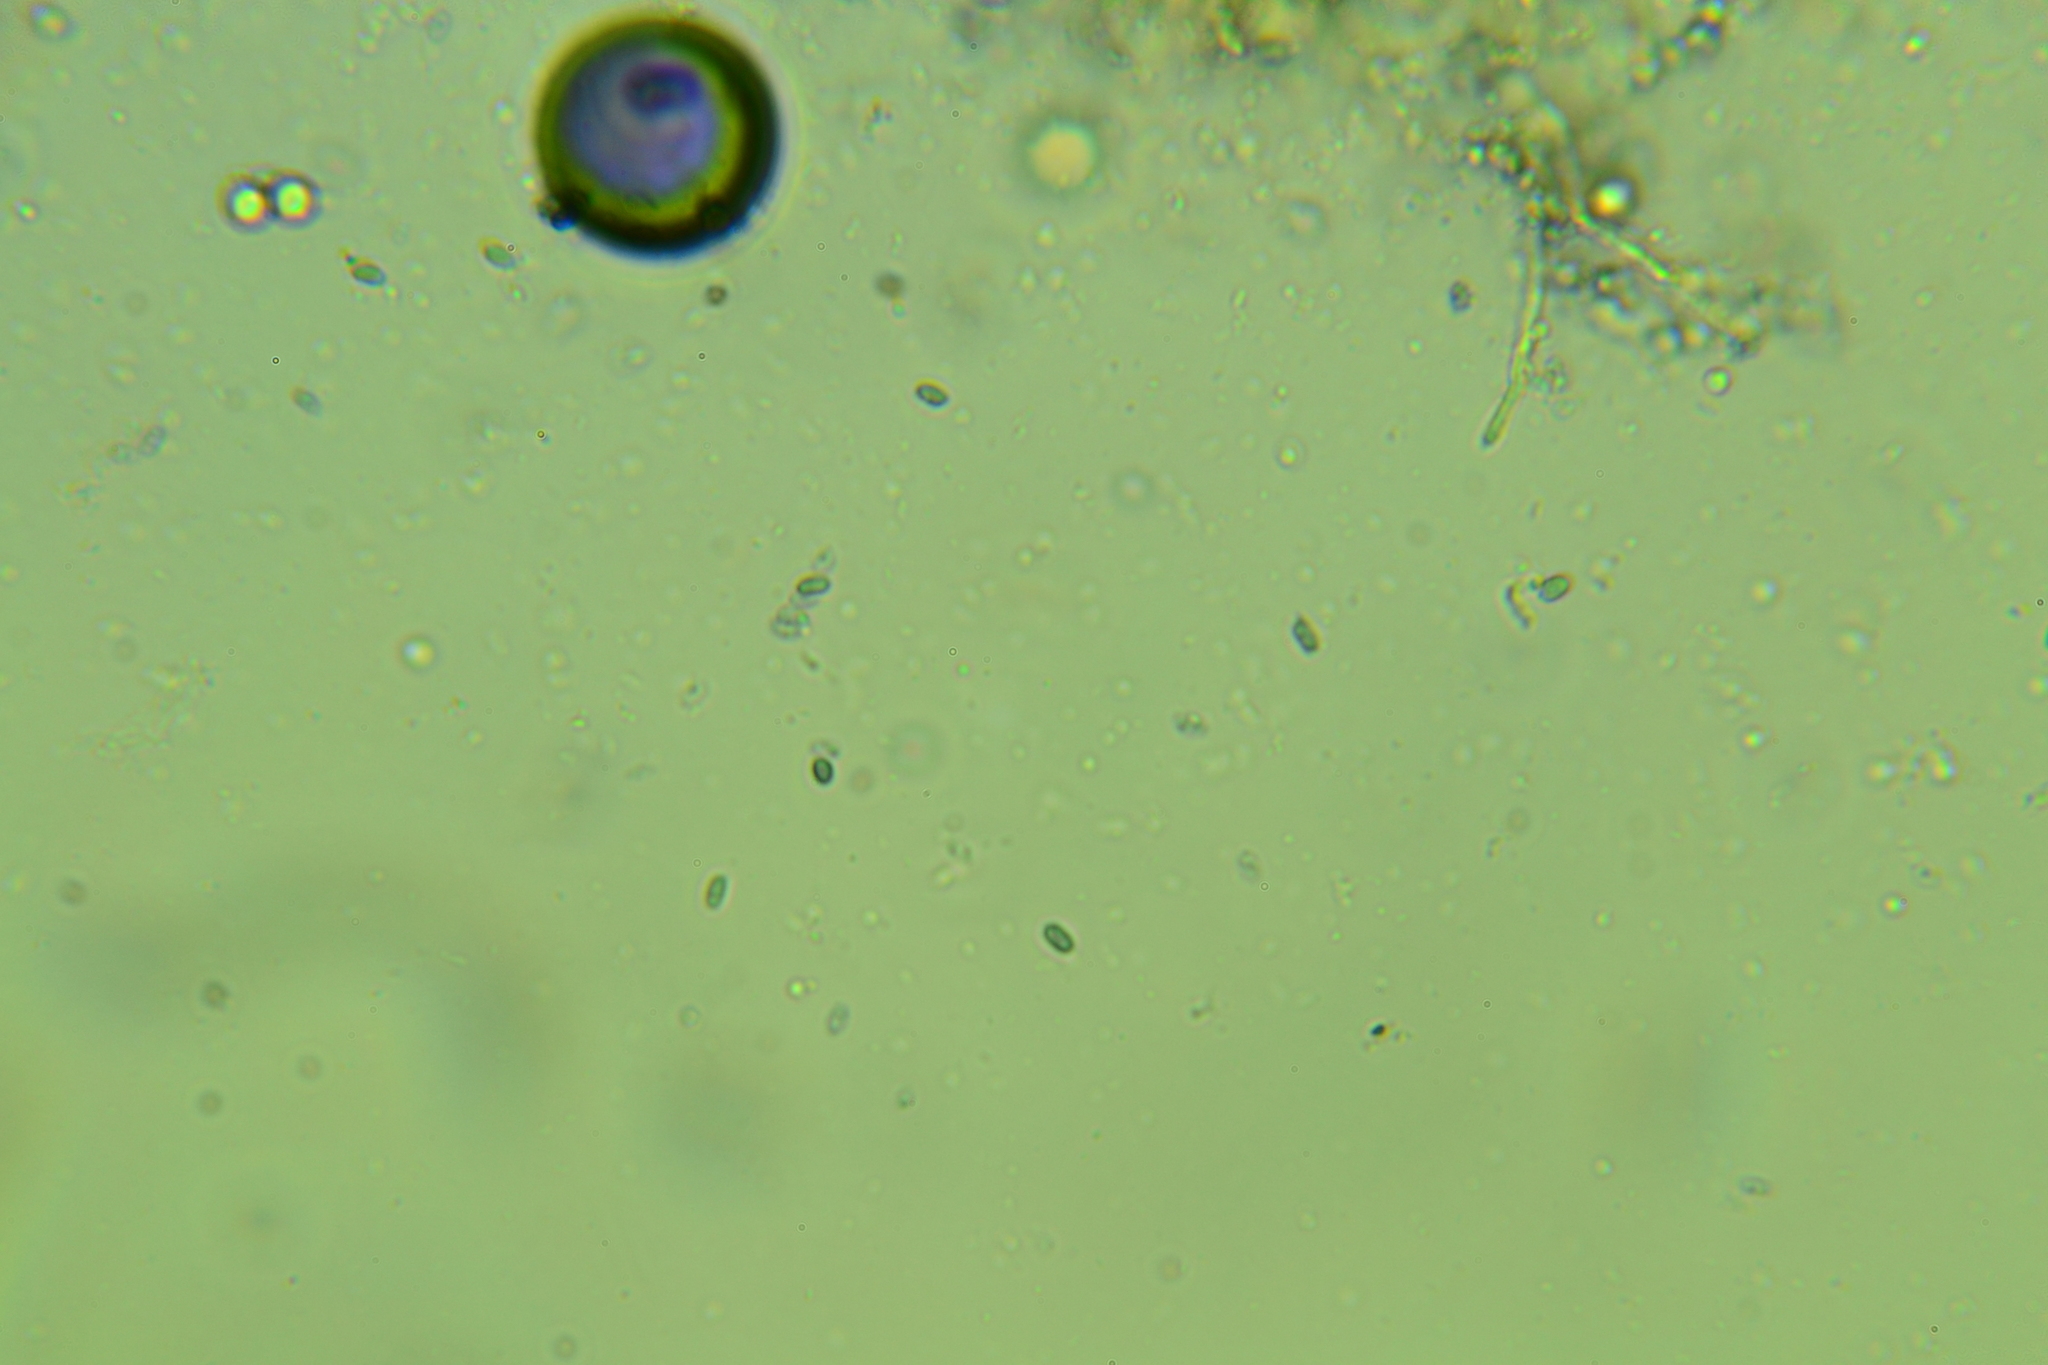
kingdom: Fungi
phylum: Basidiomycota
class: Agaricomycetes
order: Russulales
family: Auriscalpiaceae
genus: Artomyces
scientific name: Artomyces pyxidatus
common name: Crown-tipped coral fungus
